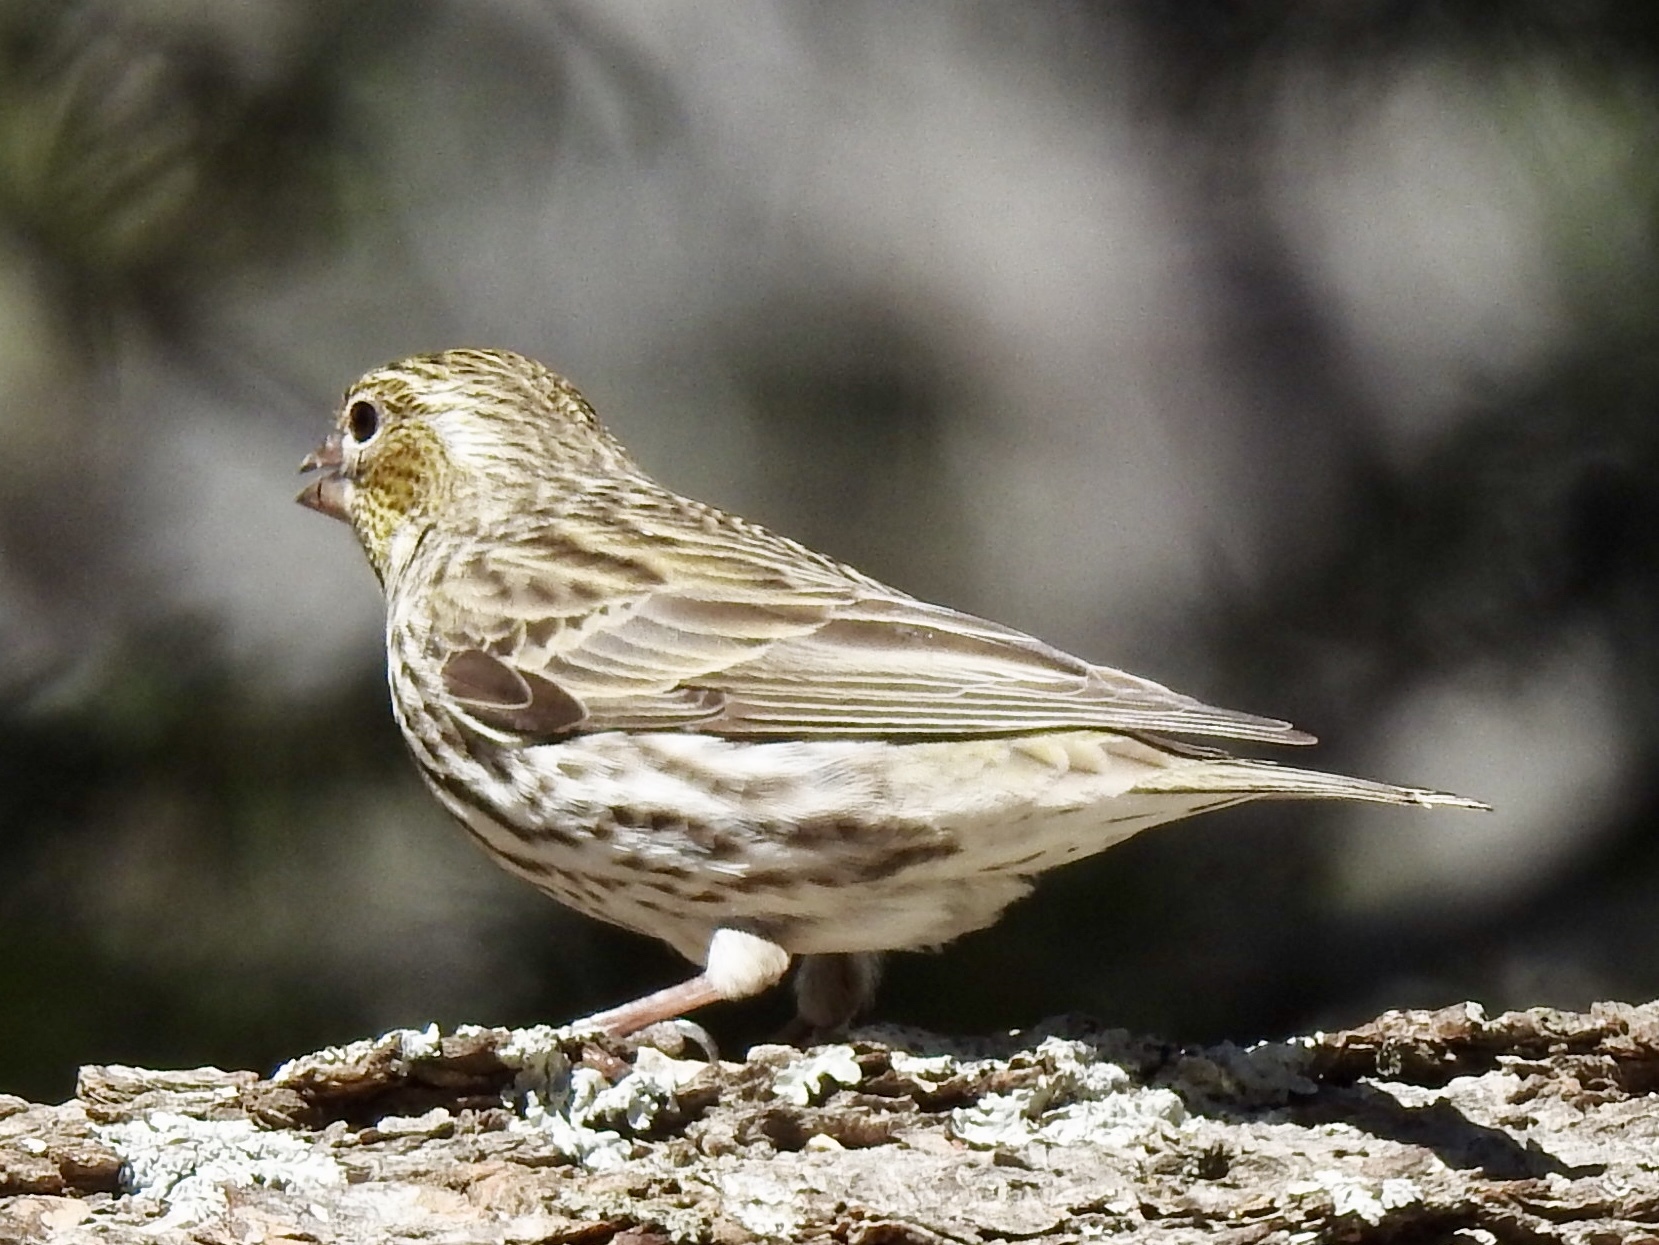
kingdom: Animalia
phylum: Chordata
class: Aves
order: Passeriformes
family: Fringillidae
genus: Haemorhous
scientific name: Haemorhous cassinii
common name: Cassin's finch
